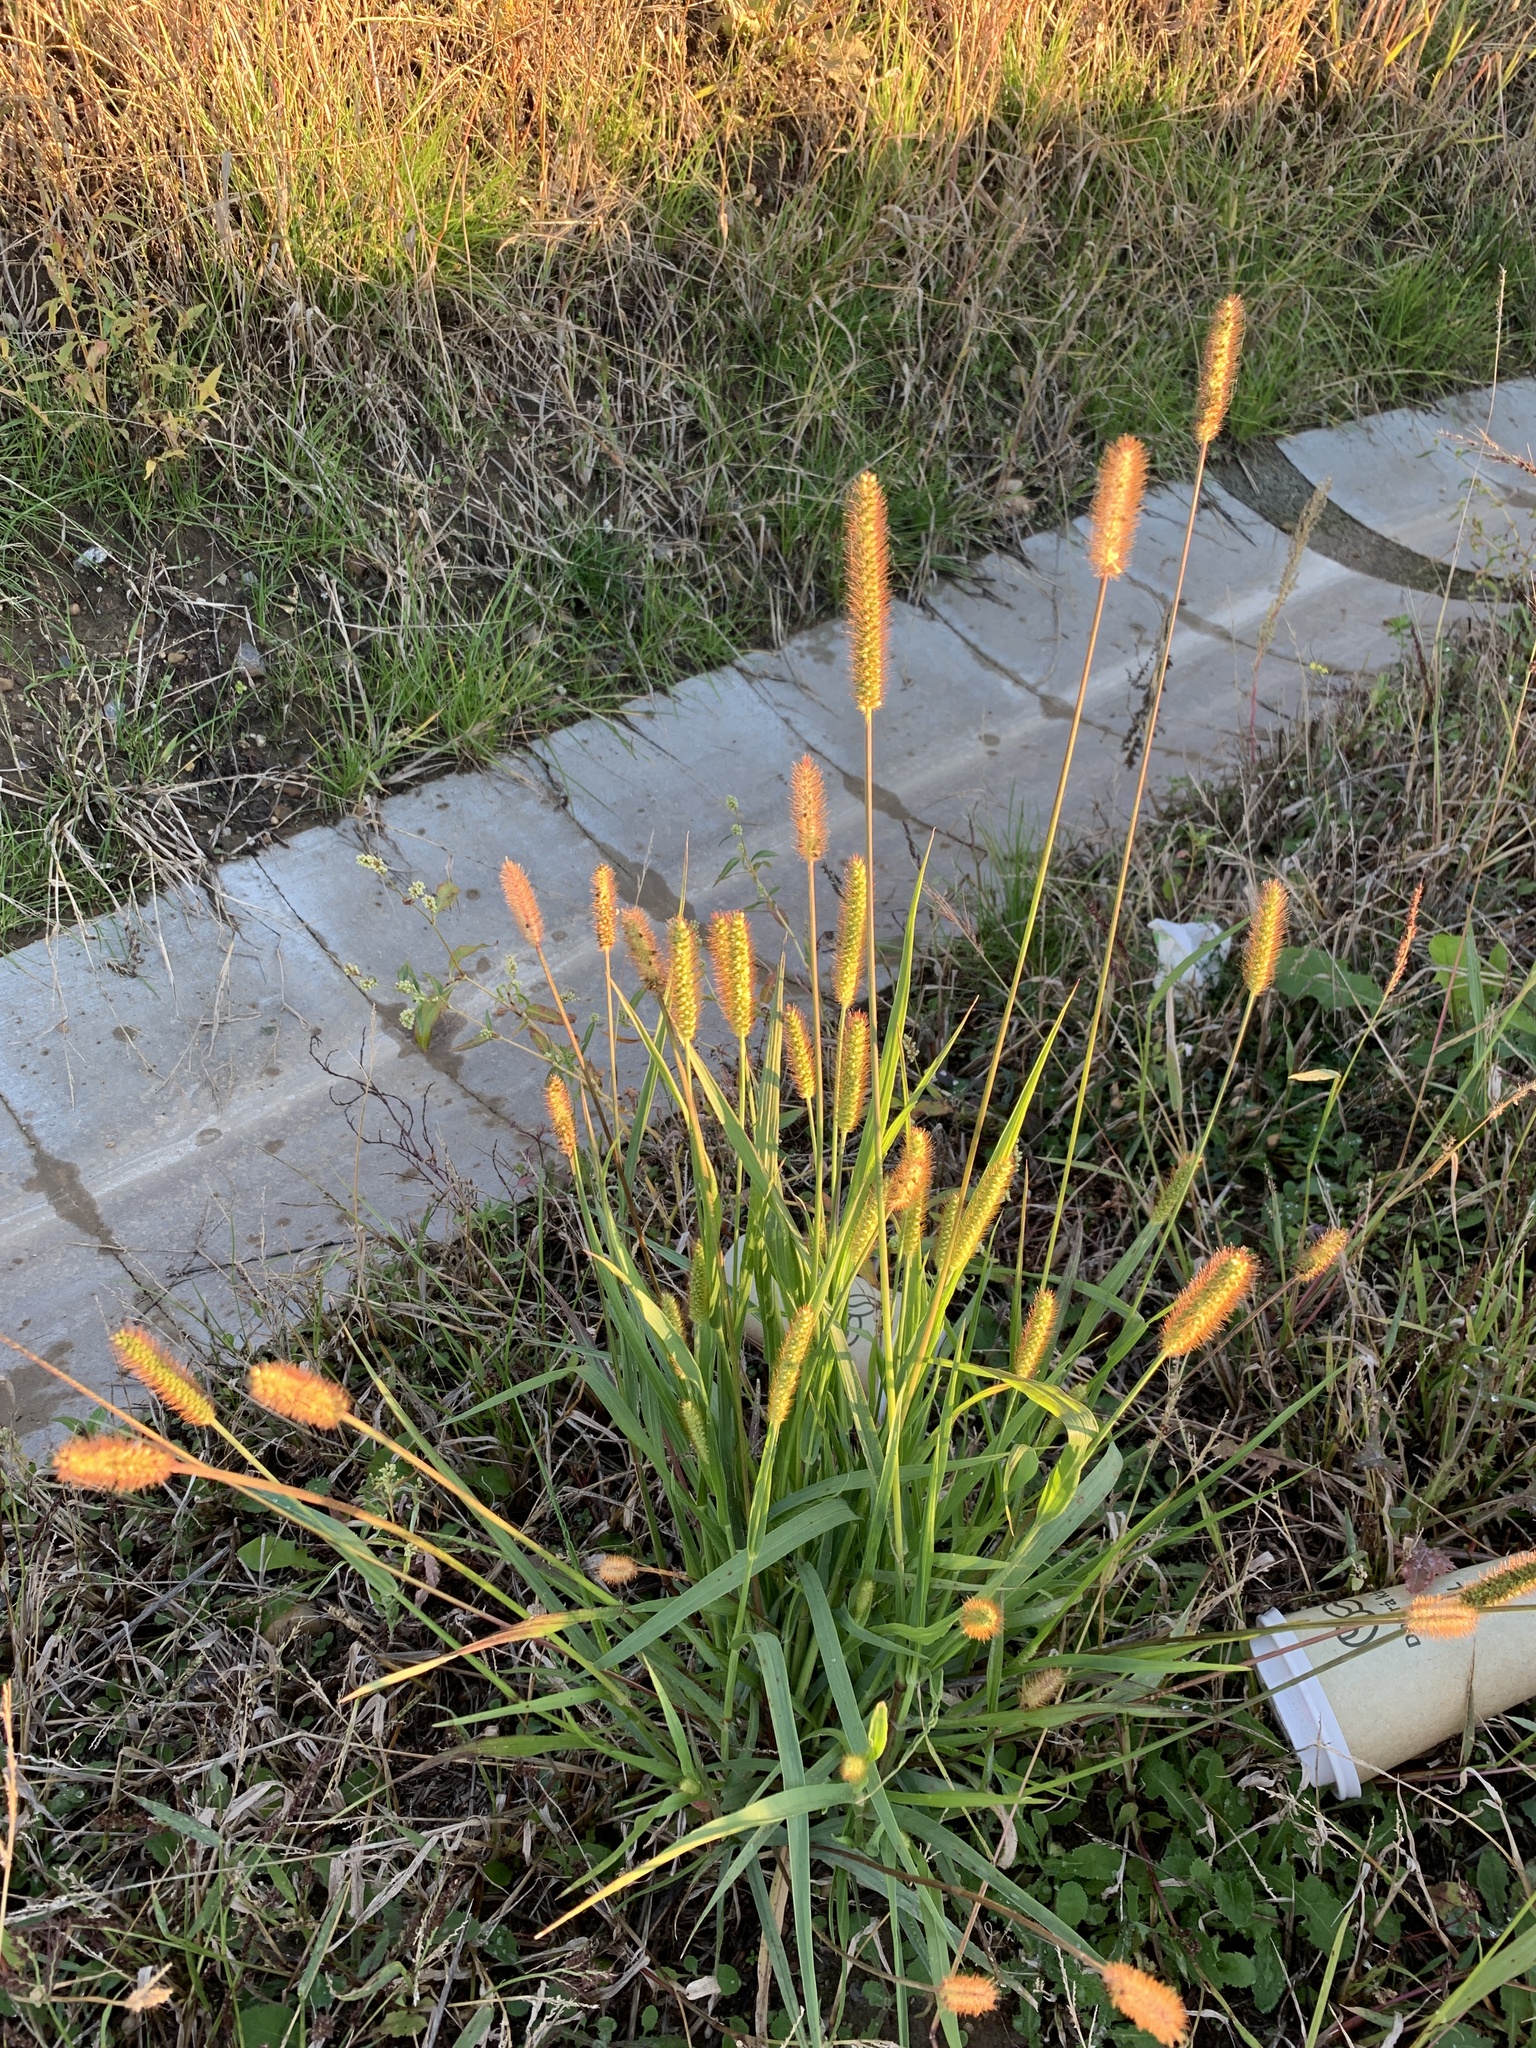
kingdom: Plantae
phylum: Tracheophyta
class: Liliopsida
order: Poales
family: Poaceae
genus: Setaria
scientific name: Setaria pumila
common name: Yellow bristle-grass
